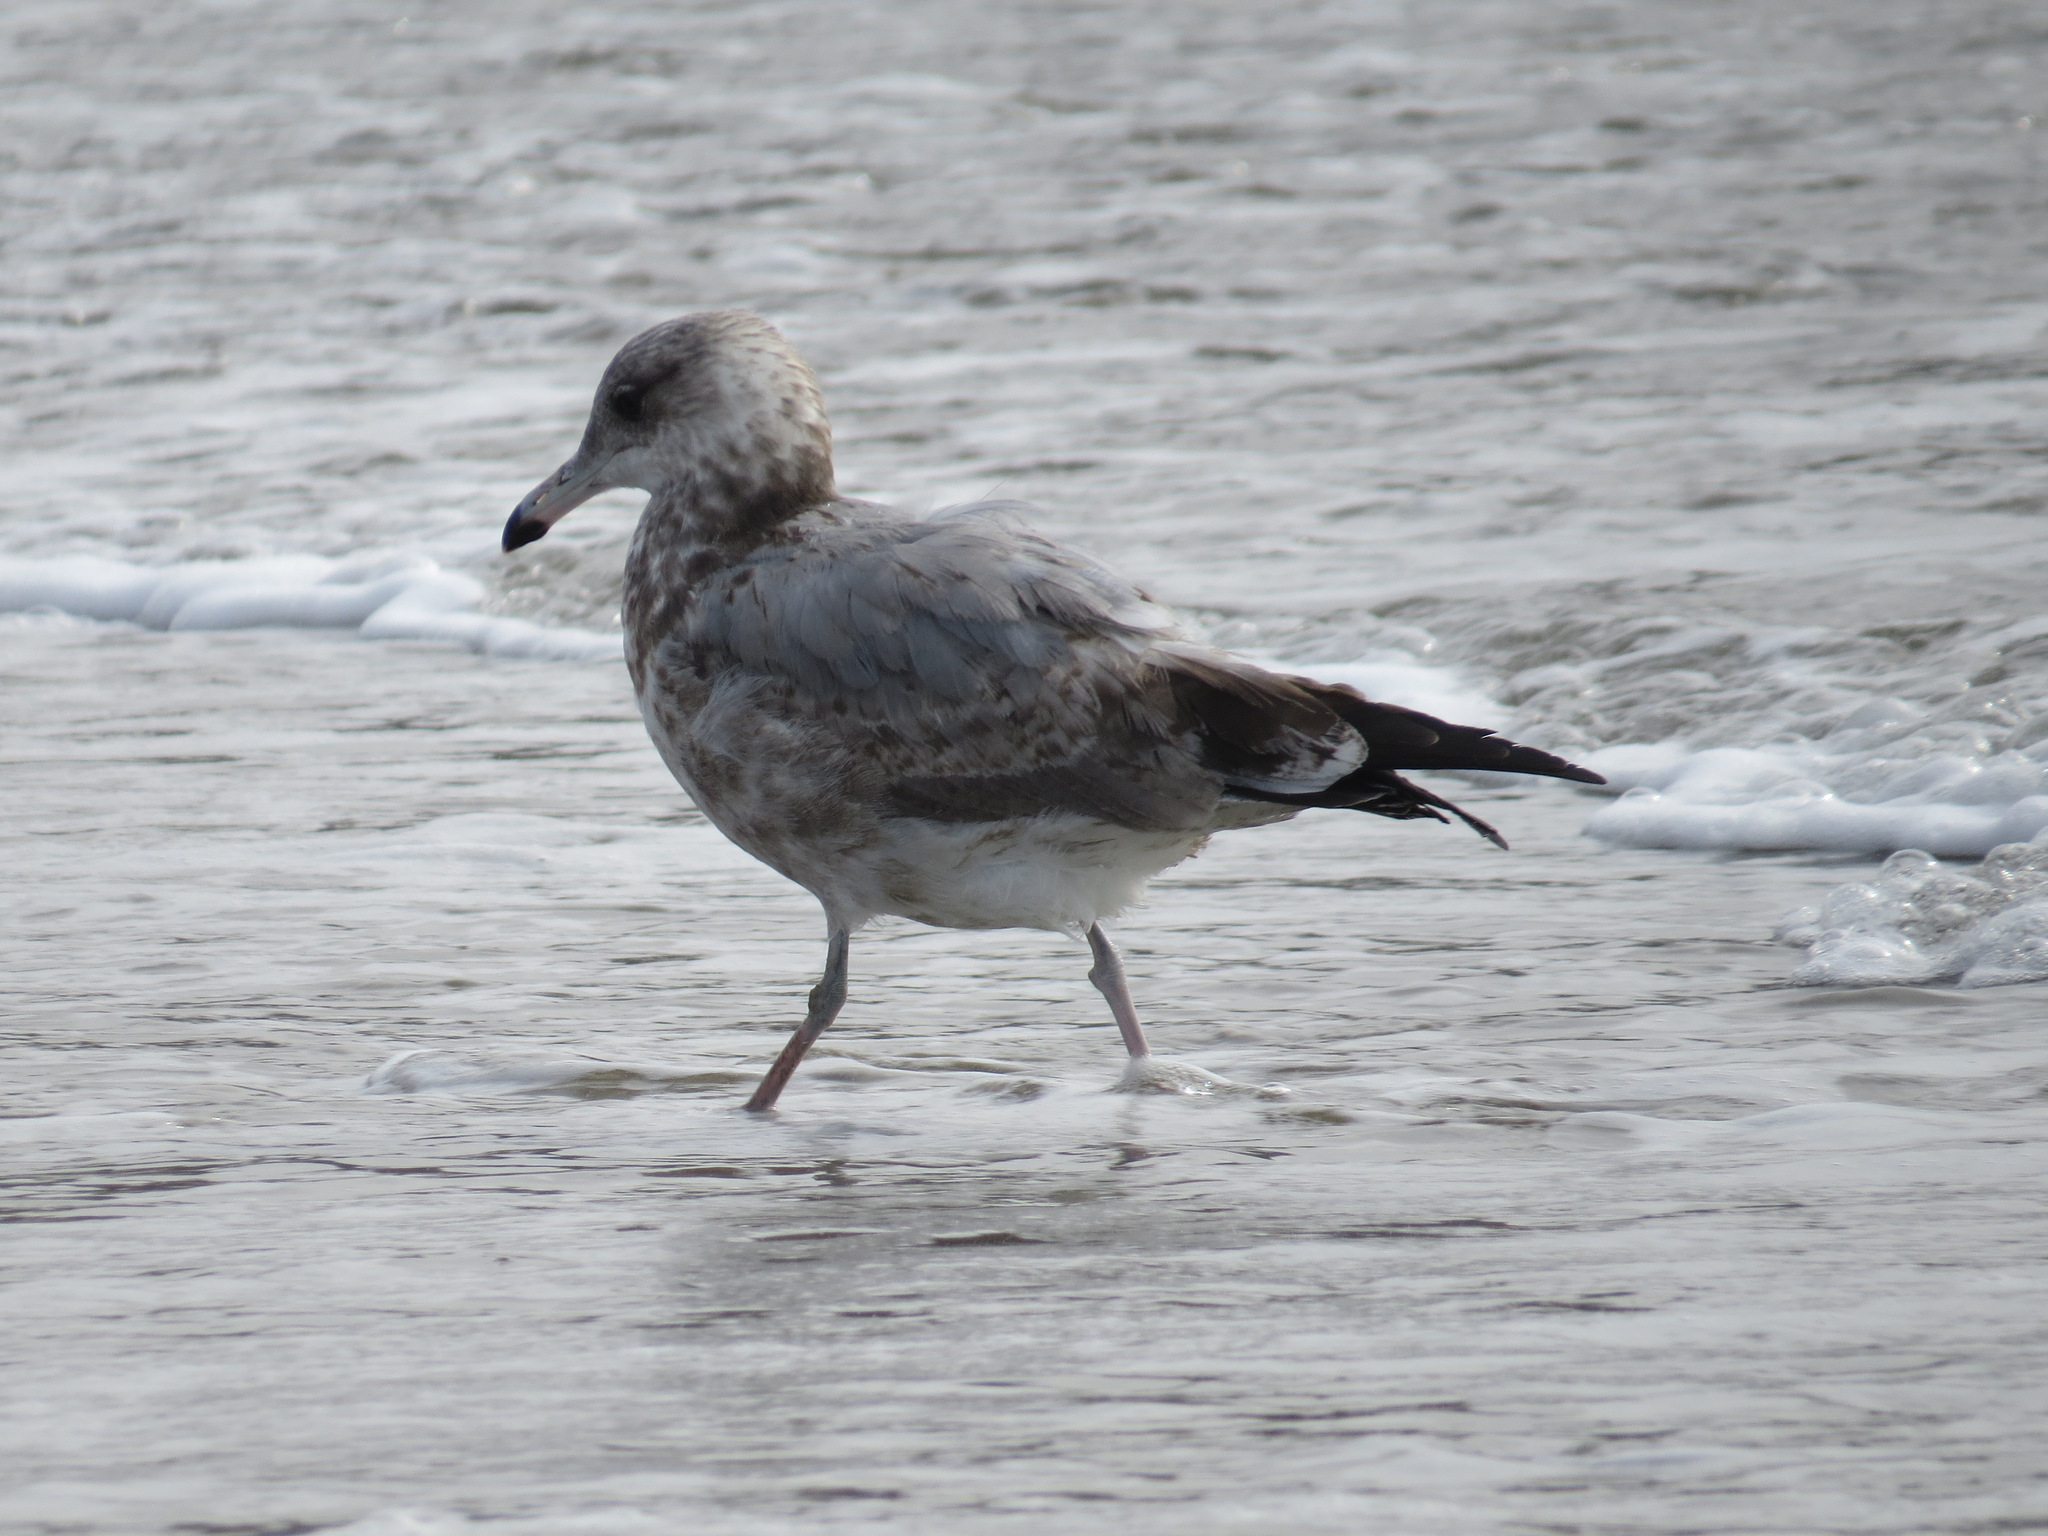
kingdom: Animalia
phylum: Chordata
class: Aves
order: Charadriiformes
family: Laridae
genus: Larus
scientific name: Larus californicus
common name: California gull
